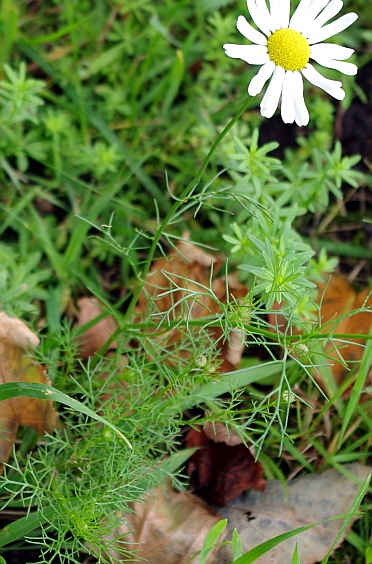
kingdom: Plantae
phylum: Tracheophyta
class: Magnoliopsida
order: Asterales
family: Asteraceae
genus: Tripleurospermum
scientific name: Tripleurospermum inodorum
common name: Scentless mayweed
